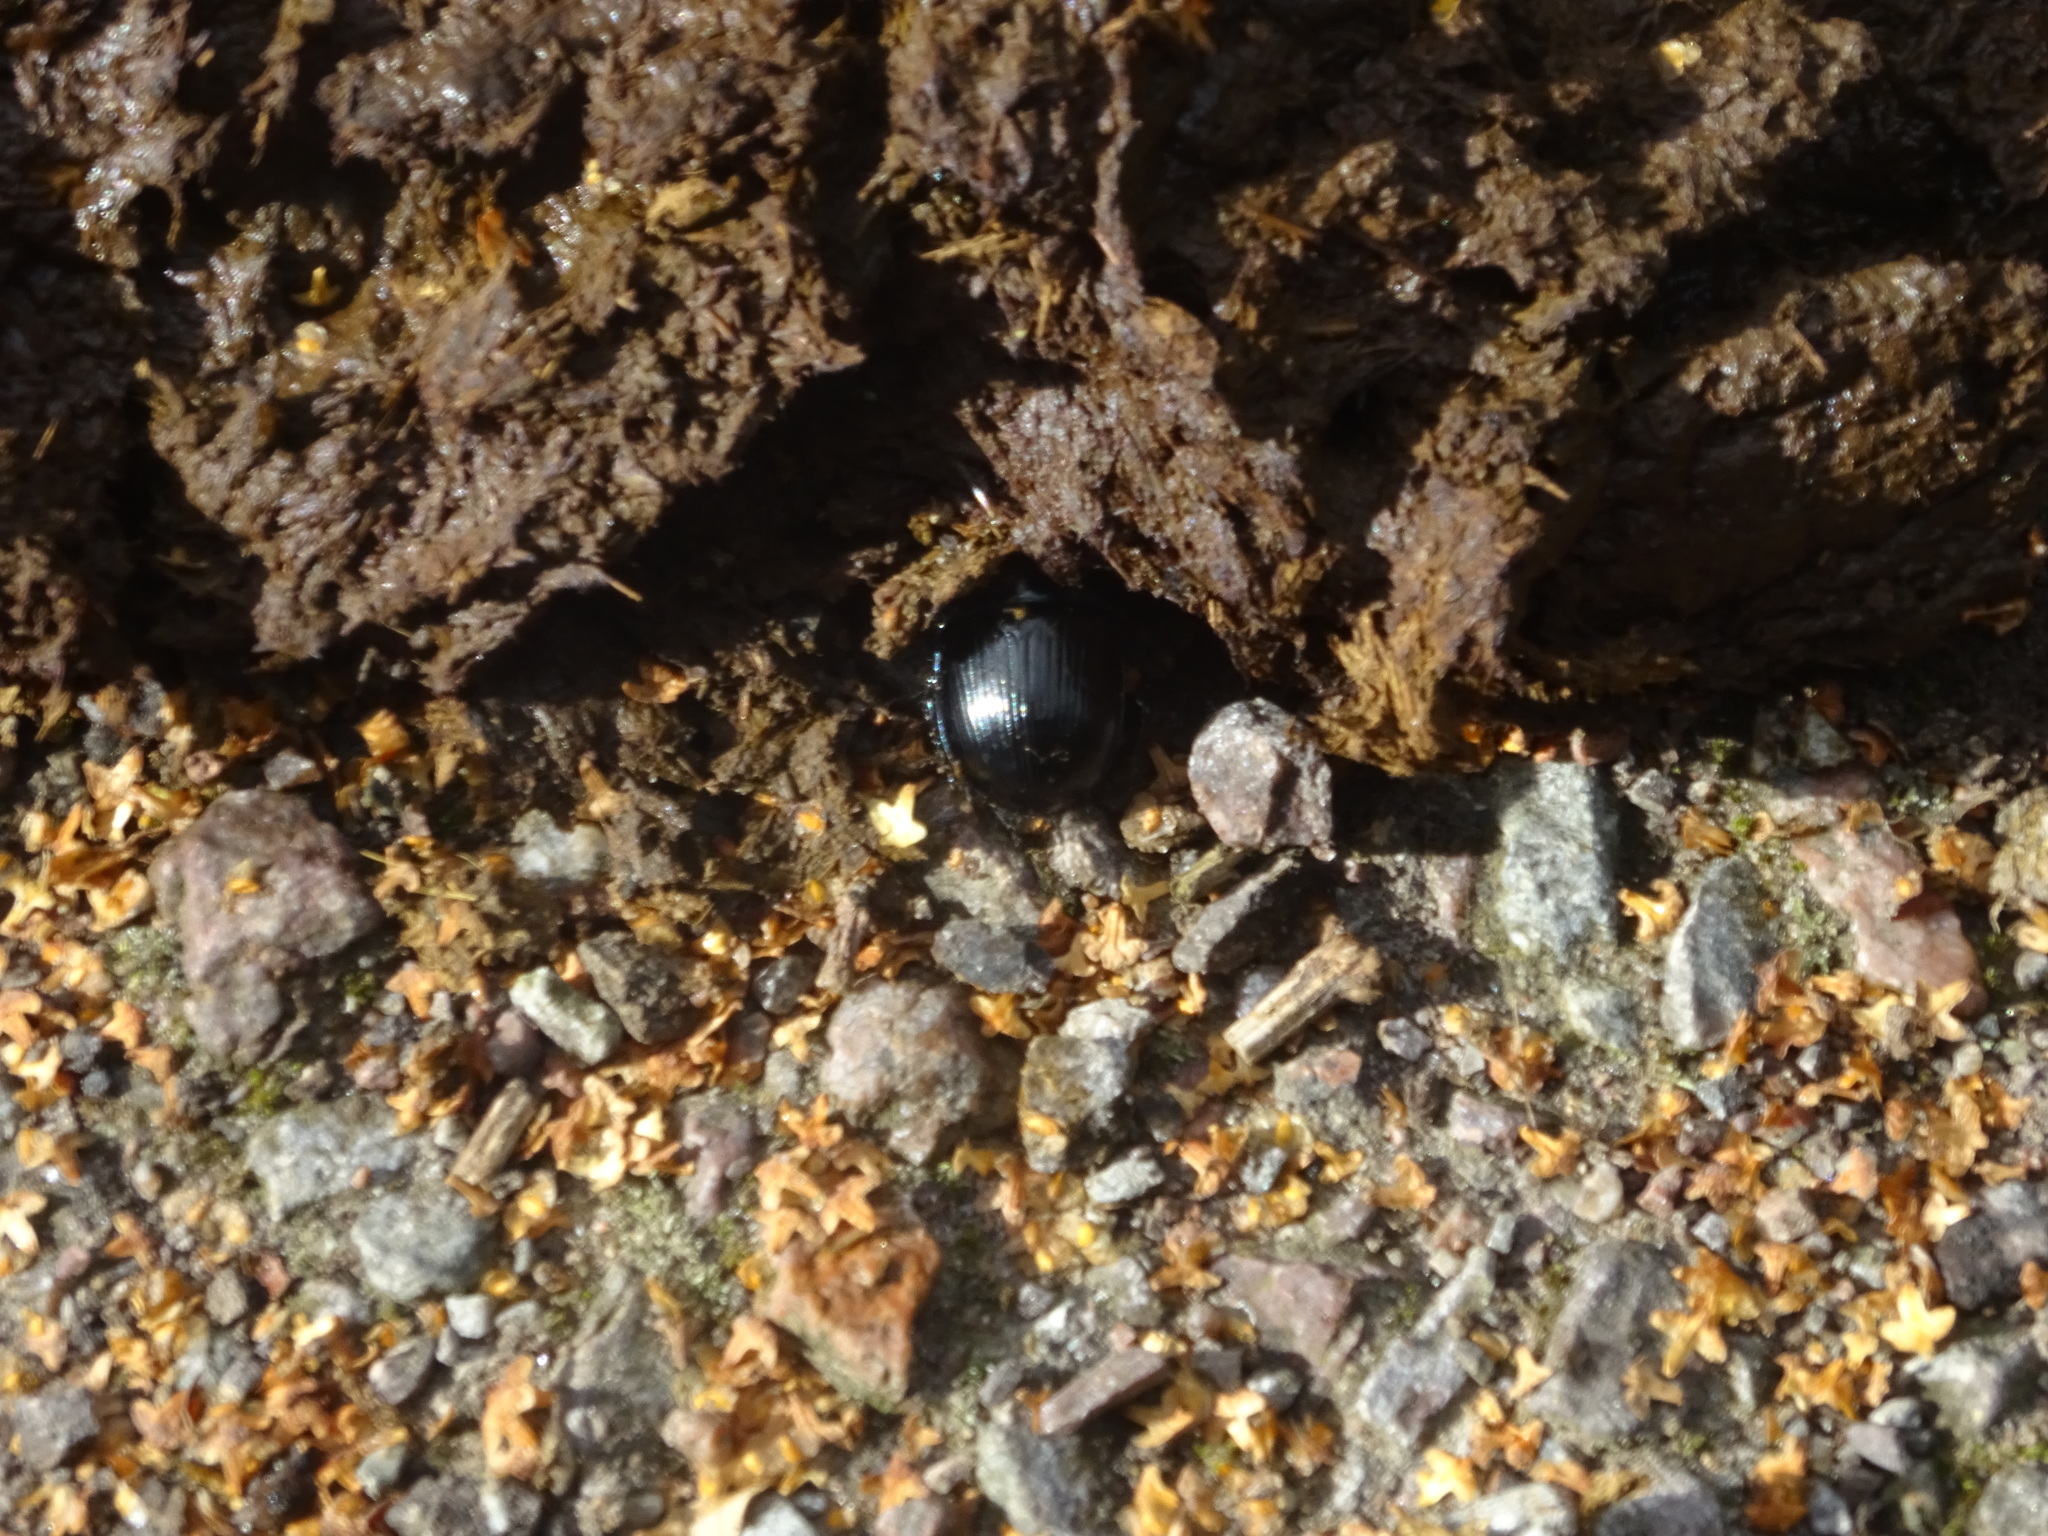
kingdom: Animalia
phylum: Arthropoda
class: Insecta
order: Coleoptera
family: Geotrupidae
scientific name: Geotrupidae
